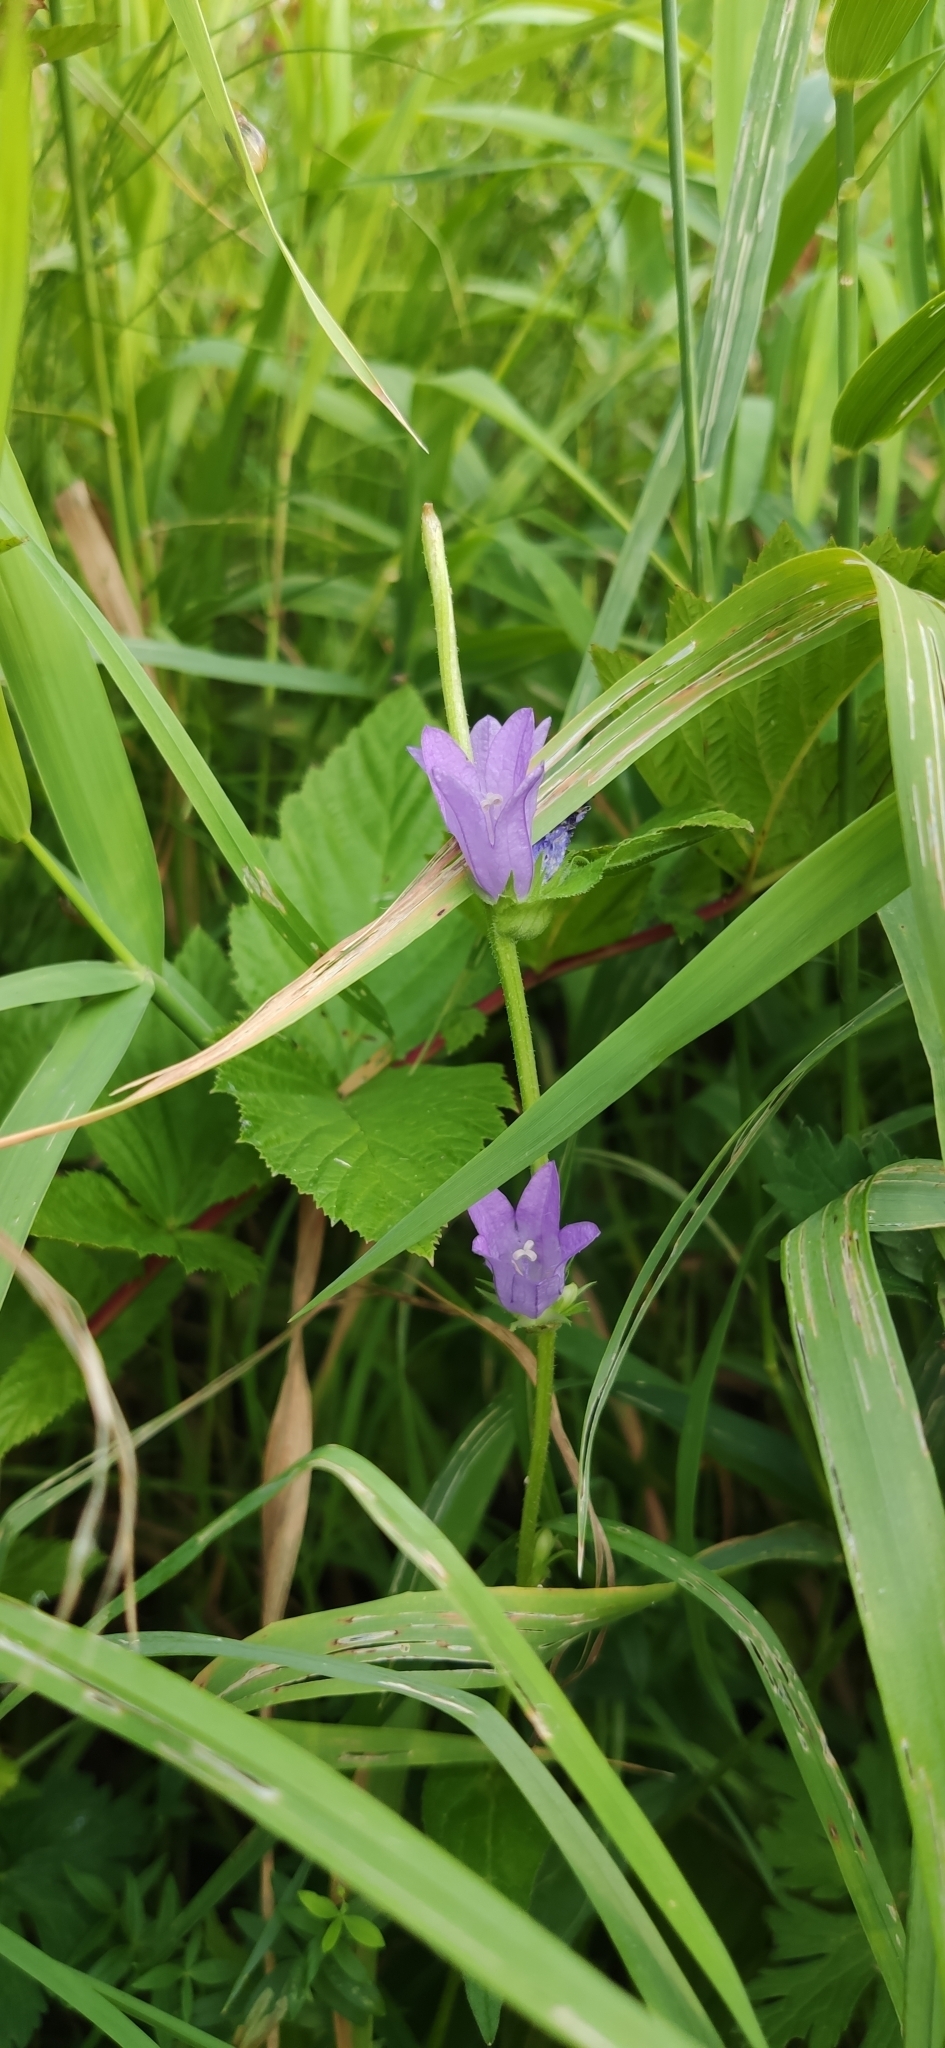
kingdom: Plantae
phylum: Tracheophyta
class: Magnoliopsida
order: Asterales
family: Campanulaceae
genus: Campanula
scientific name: Campanula glomerata
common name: Clustered bellflower
